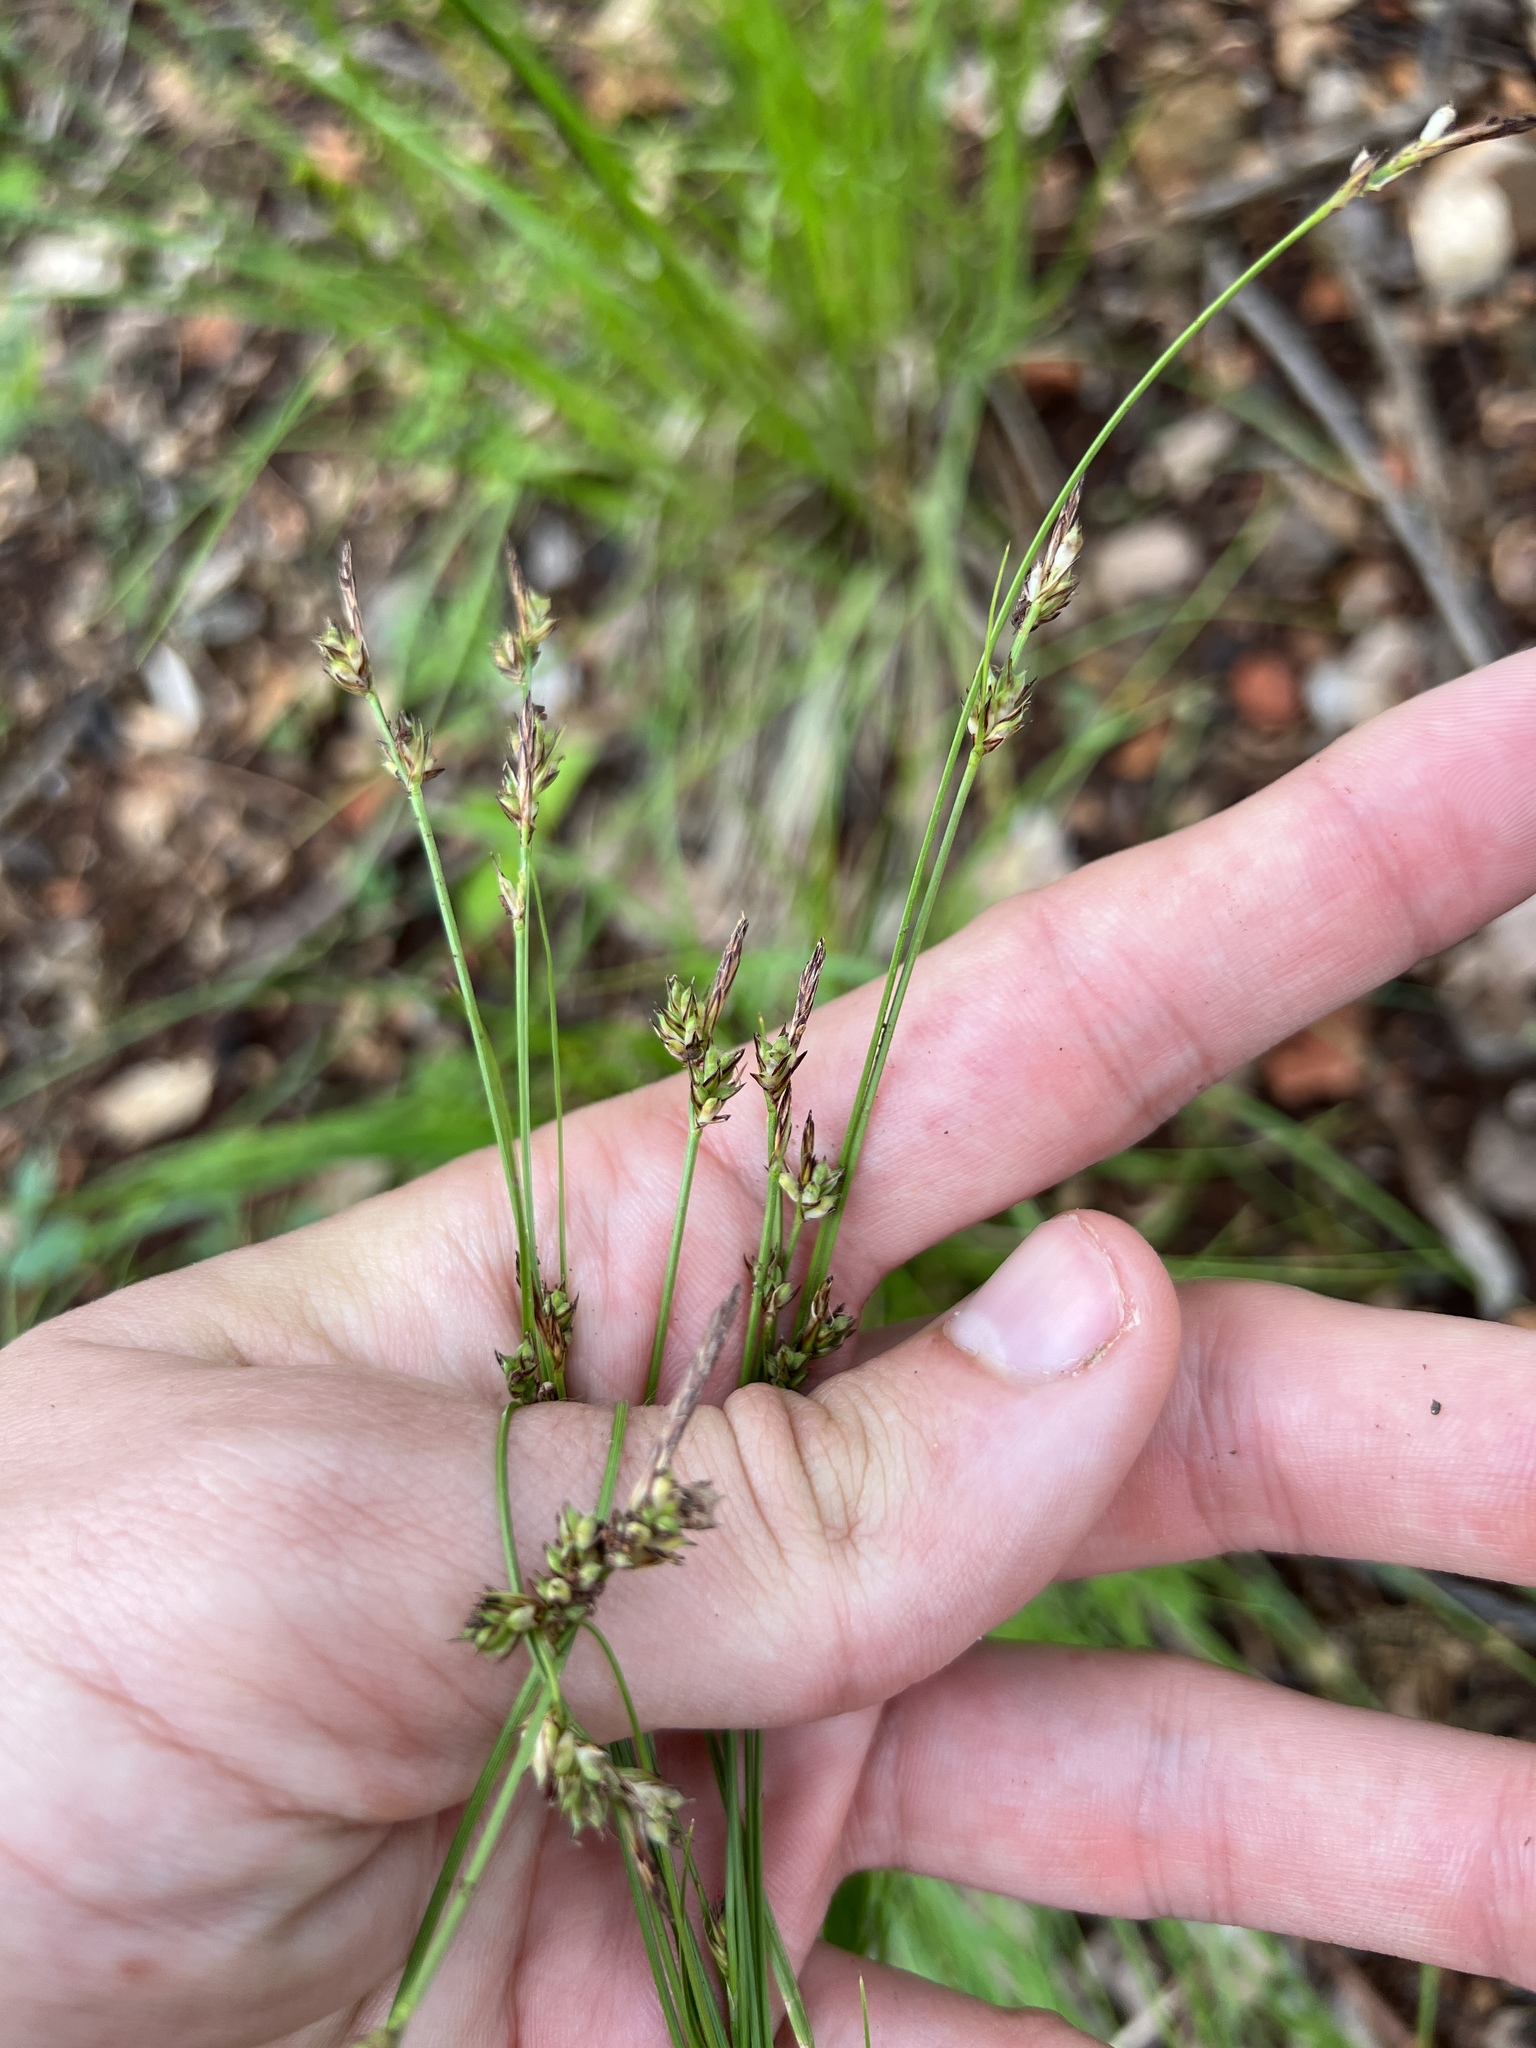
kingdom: Plantae
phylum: Tracheophyta
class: Liliopsida
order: Poales
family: Cyperaceae
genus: Carex
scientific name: Carex albicans
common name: Bellow-beaked sedge
